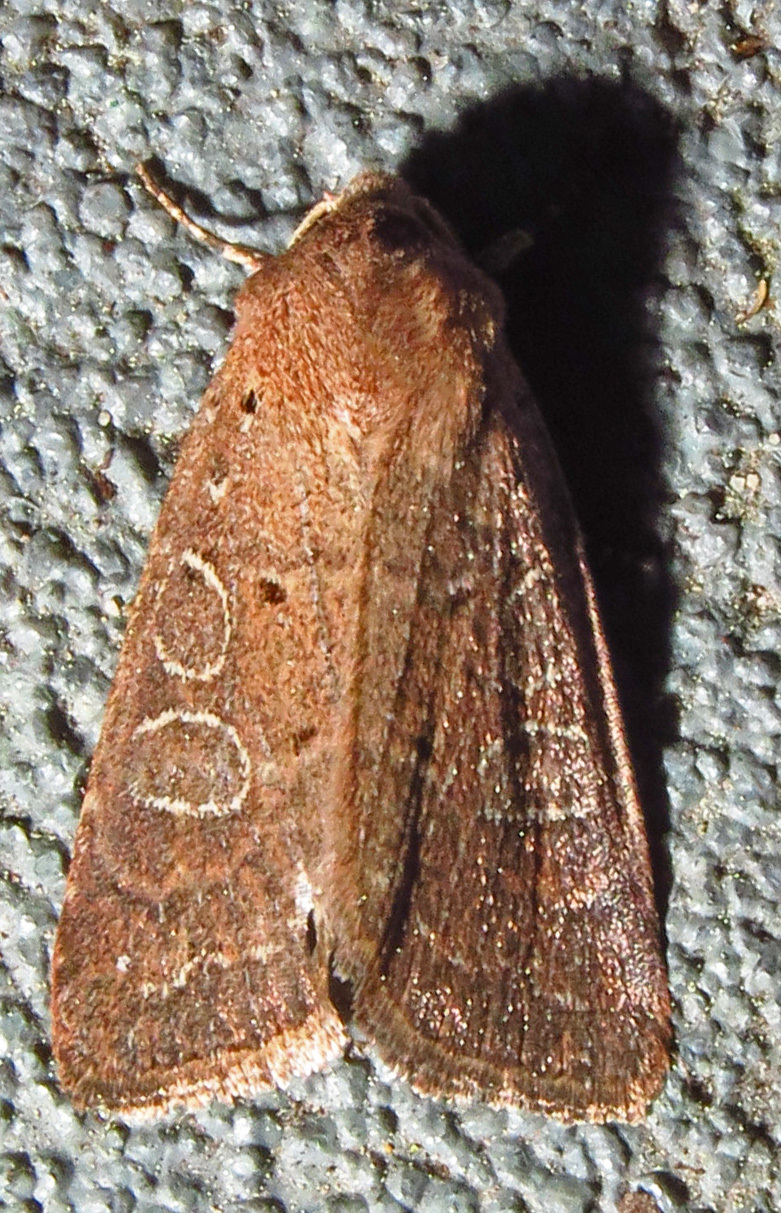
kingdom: Animalia
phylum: Arthropoda
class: Insecta
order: Lepidoptera
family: Noctuidae
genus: Kocakina
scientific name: Kocakina fidelis
